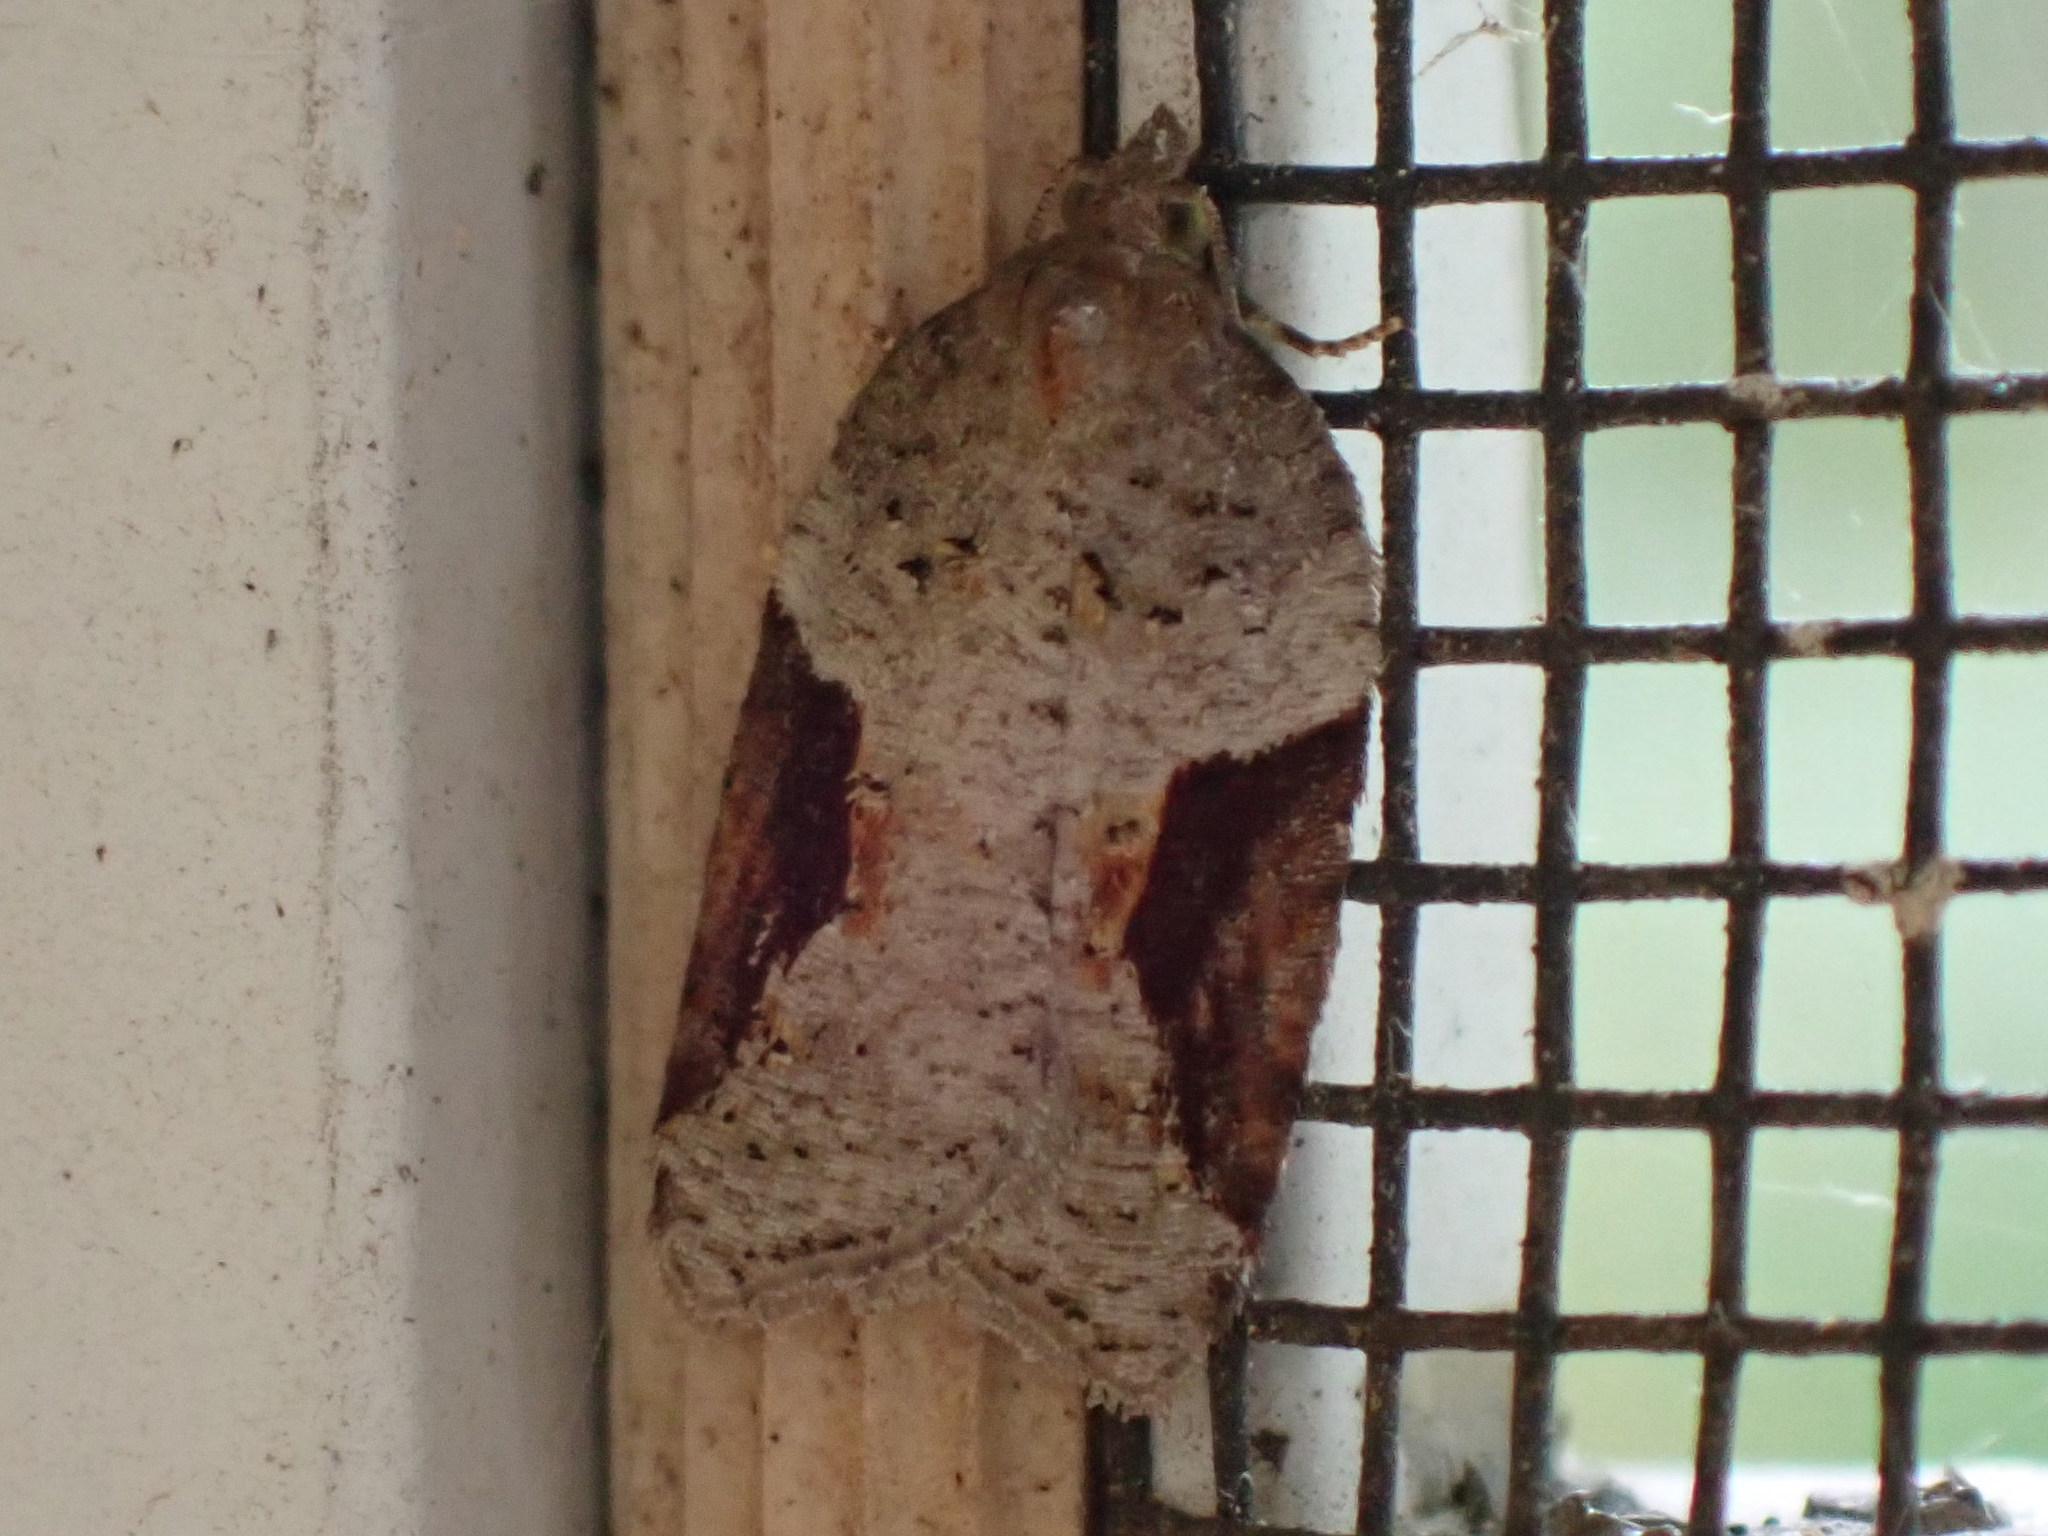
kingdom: Animalia
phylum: Arthropoda
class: Insecta
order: Lepidoptera
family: Tortricidae
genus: Acleris
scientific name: Acleris macdunnoughi
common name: Macdunnough's acleris
